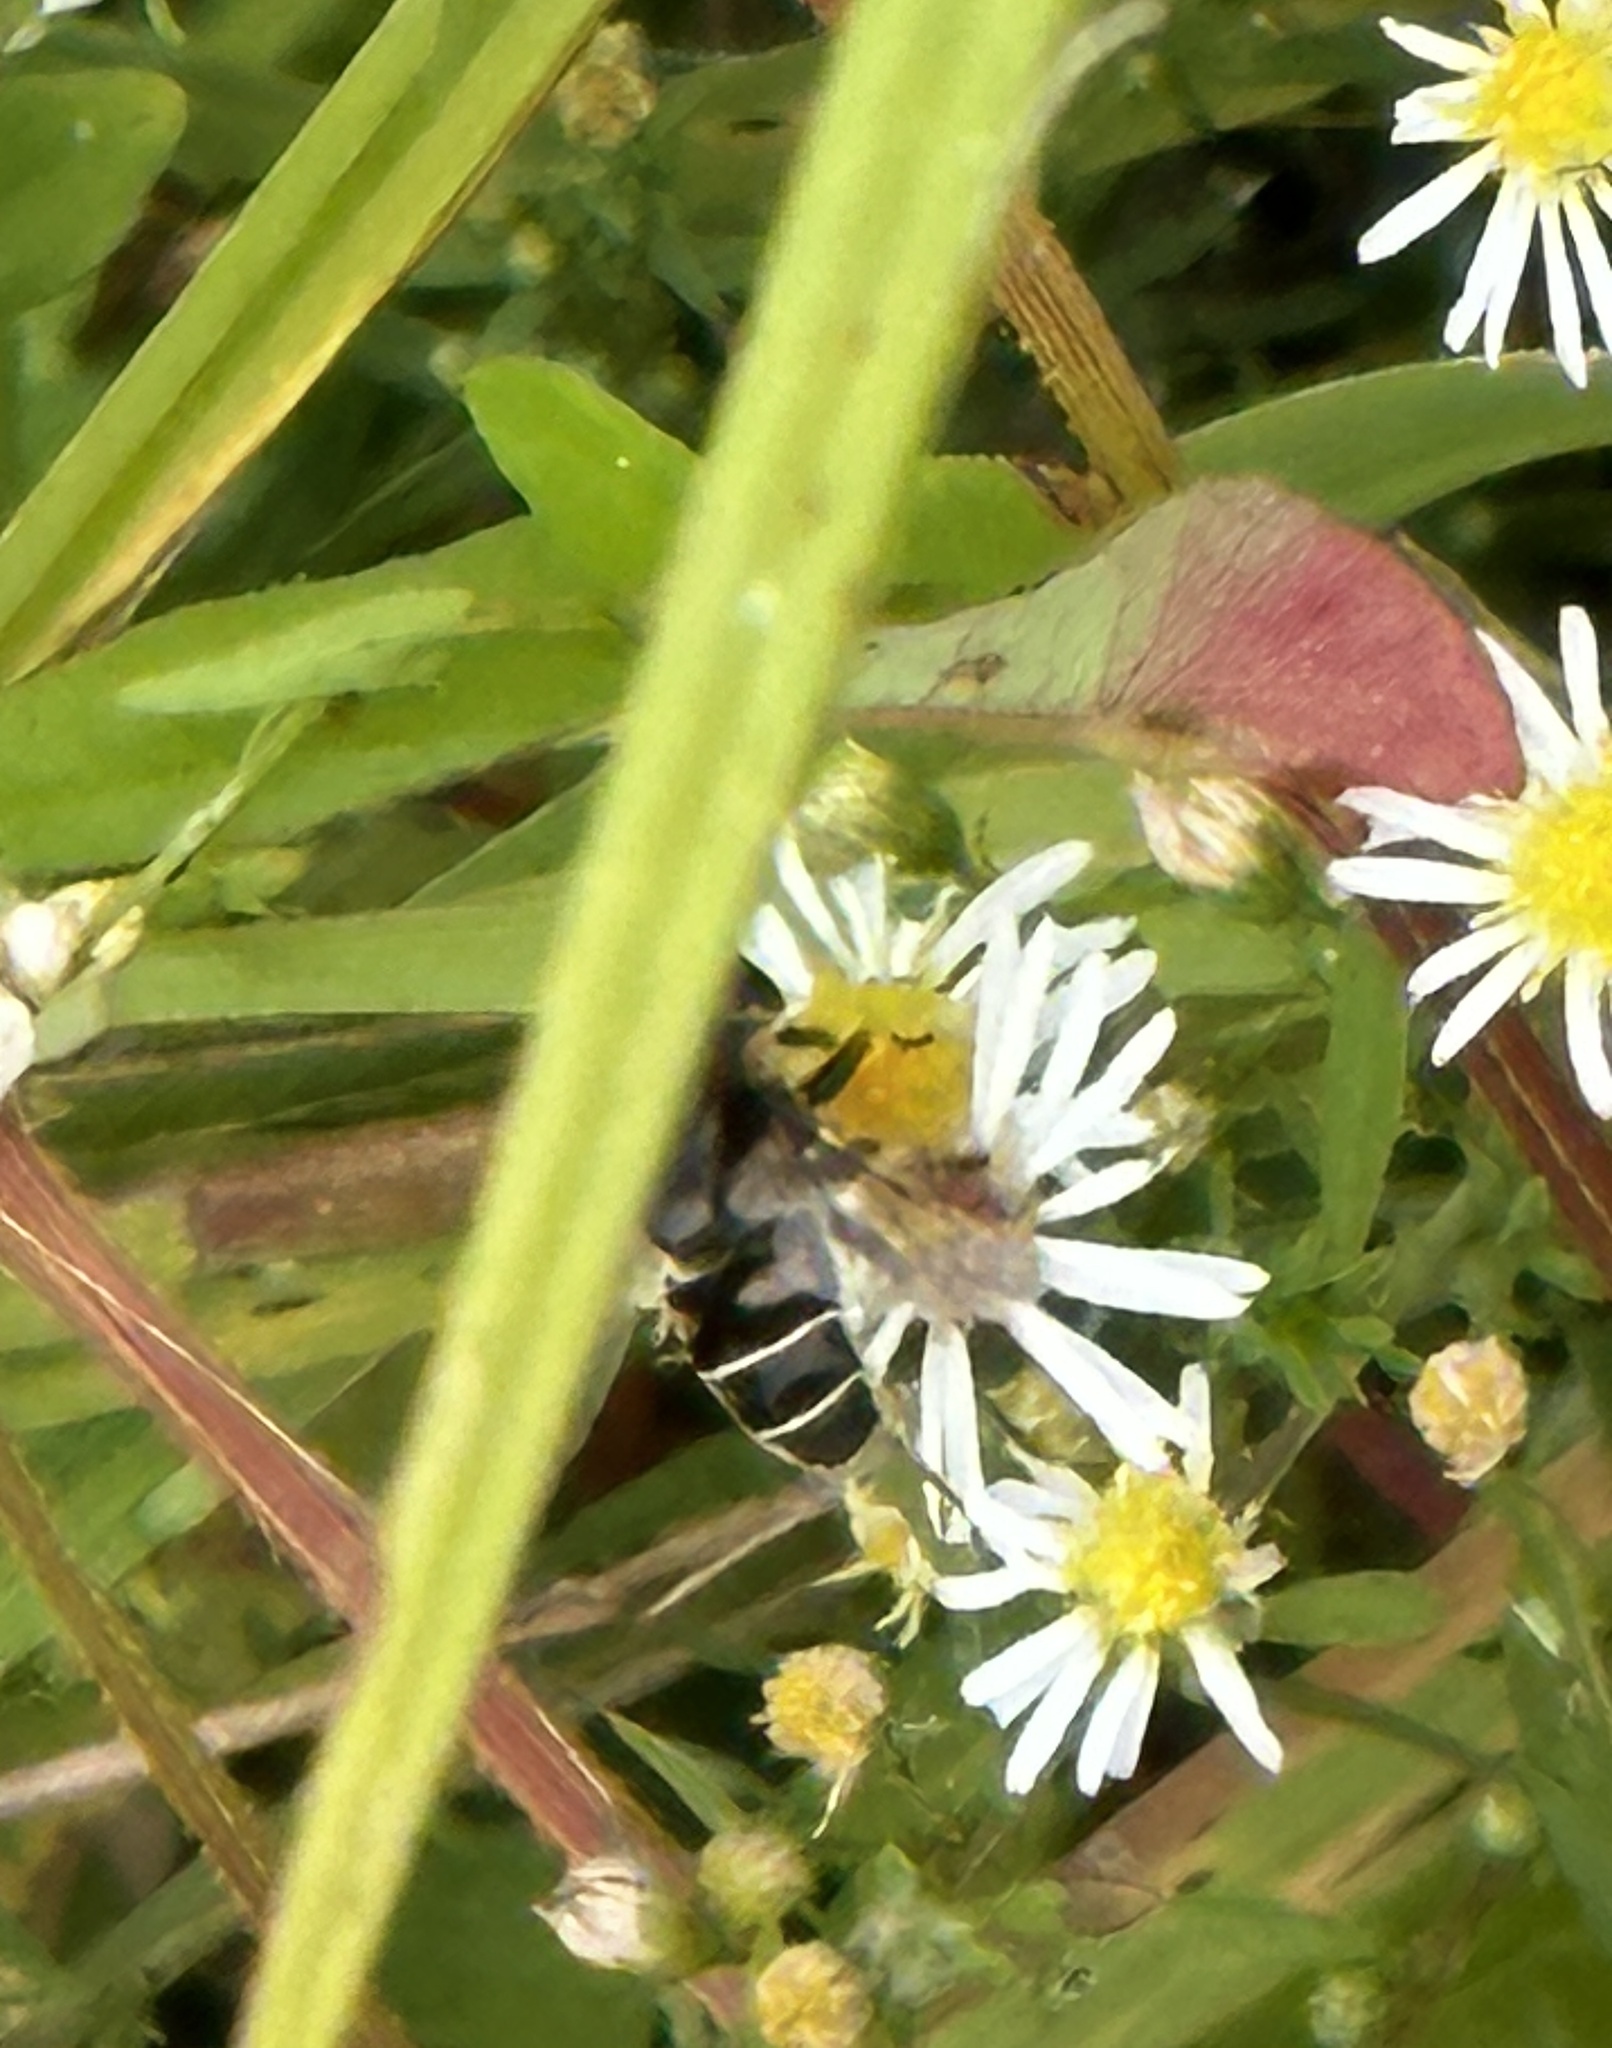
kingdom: Animalia
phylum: Arthropoda
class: Insecta
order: Diptera
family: Syrphidae
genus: Eristalis
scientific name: Eristalis dimidiata
